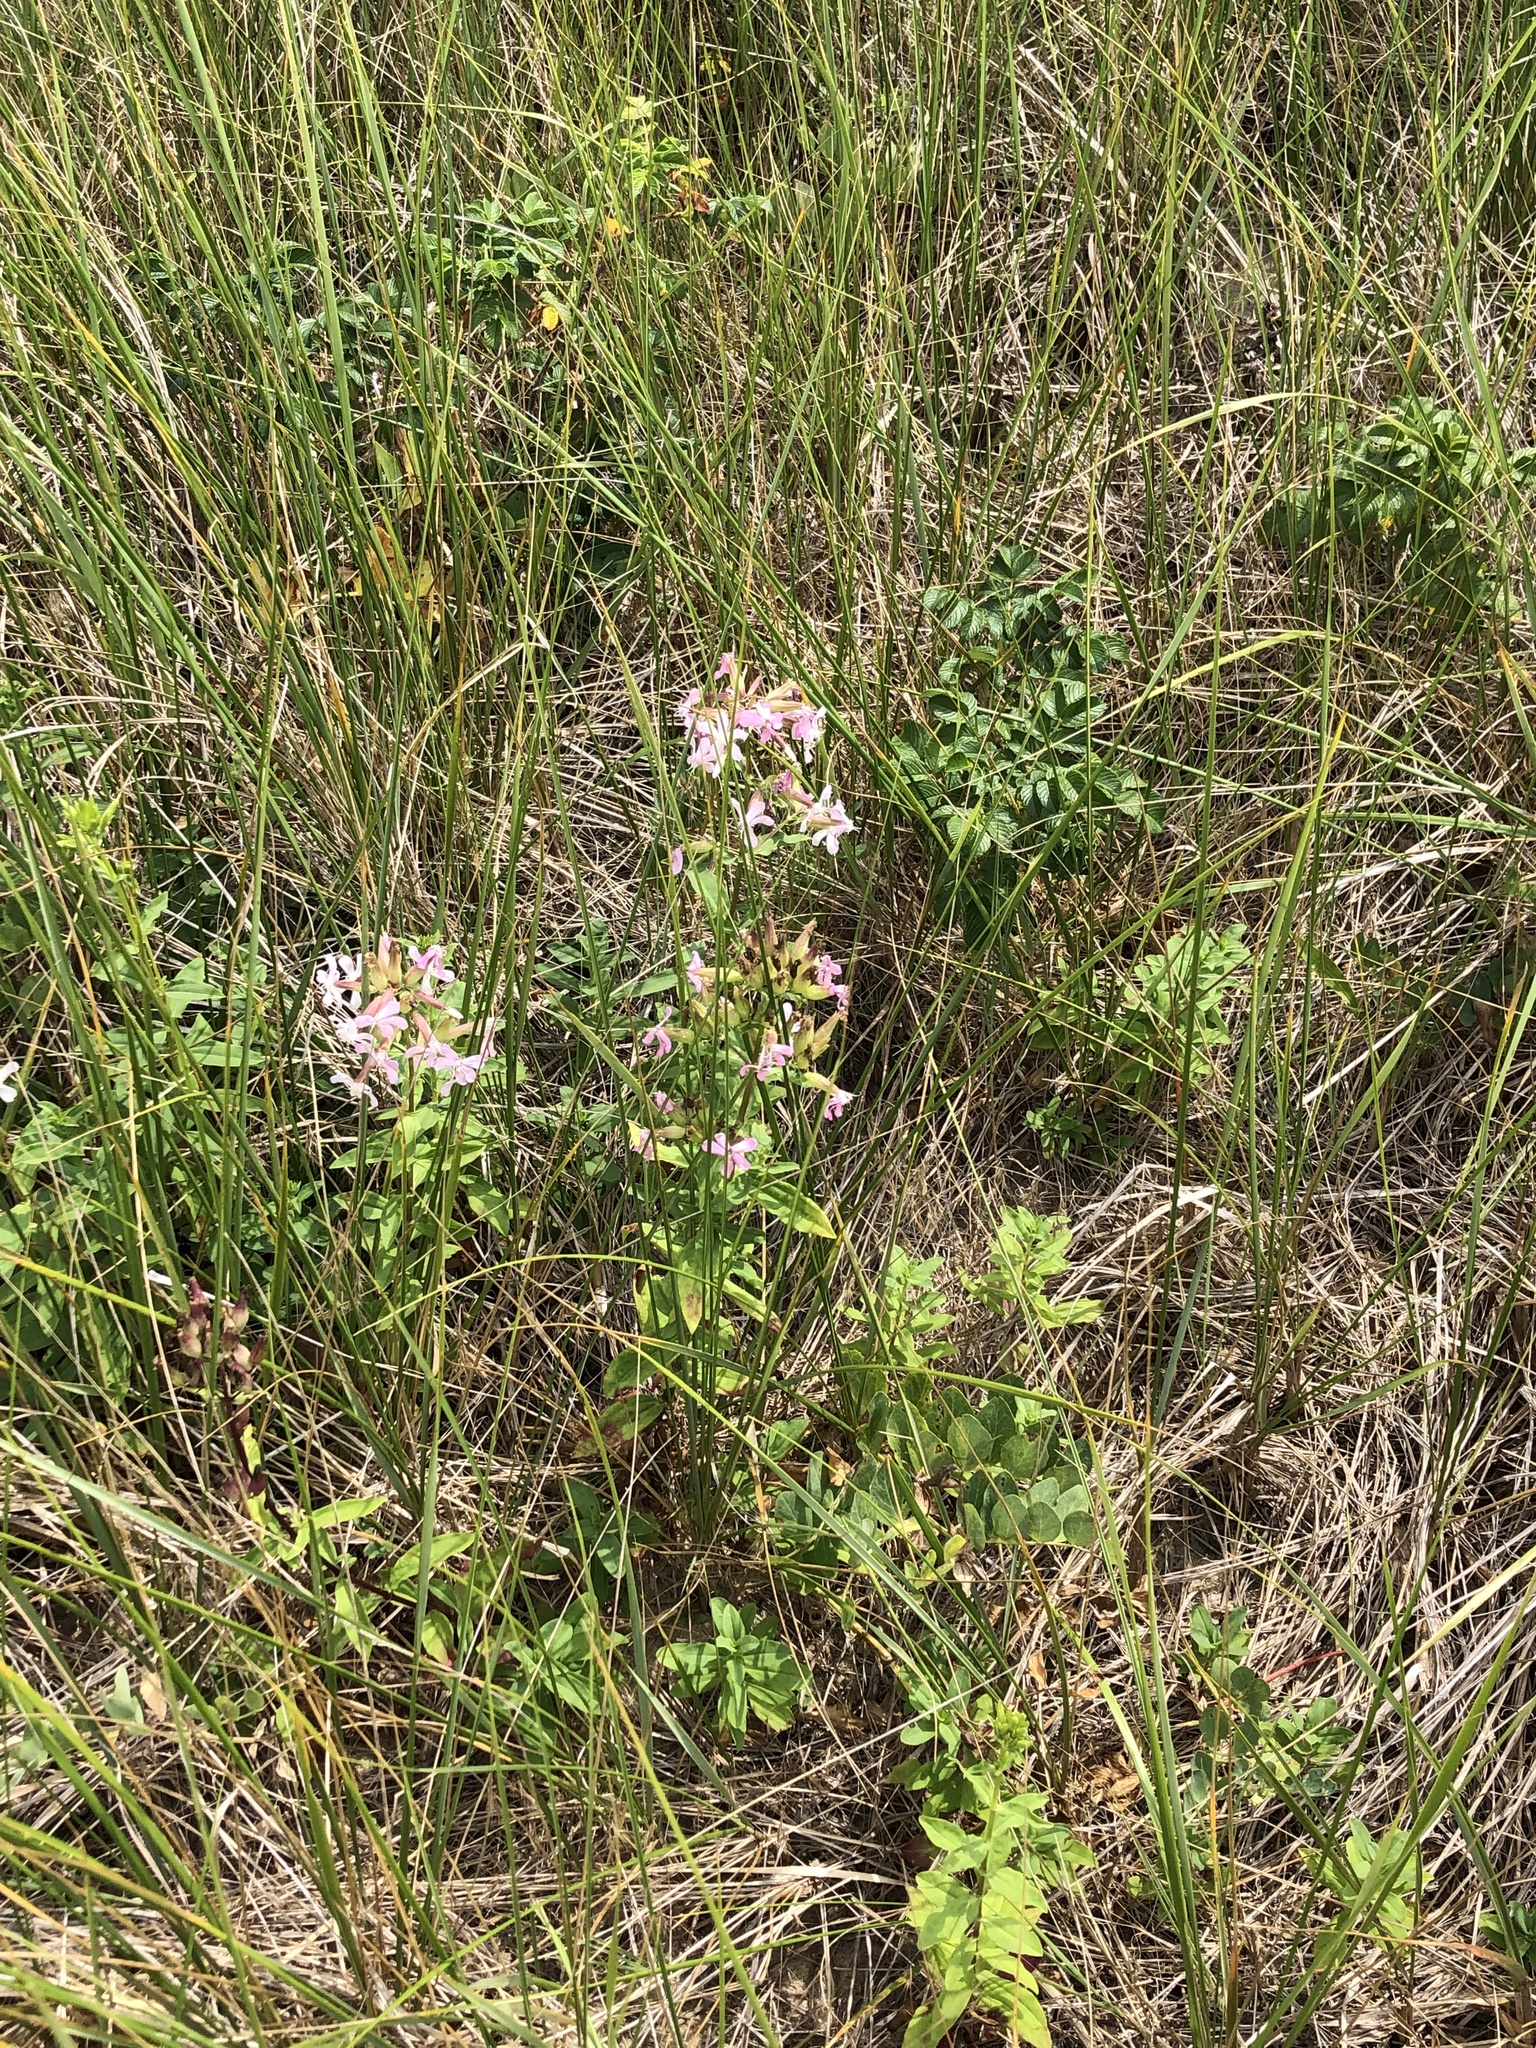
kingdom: Plantae
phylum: Tracheophyta
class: Magnoliopsida
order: Caryophyllales
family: Caryophyllaceae
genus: Saponaria
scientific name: Saponaria officinalis
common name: Soapwort
